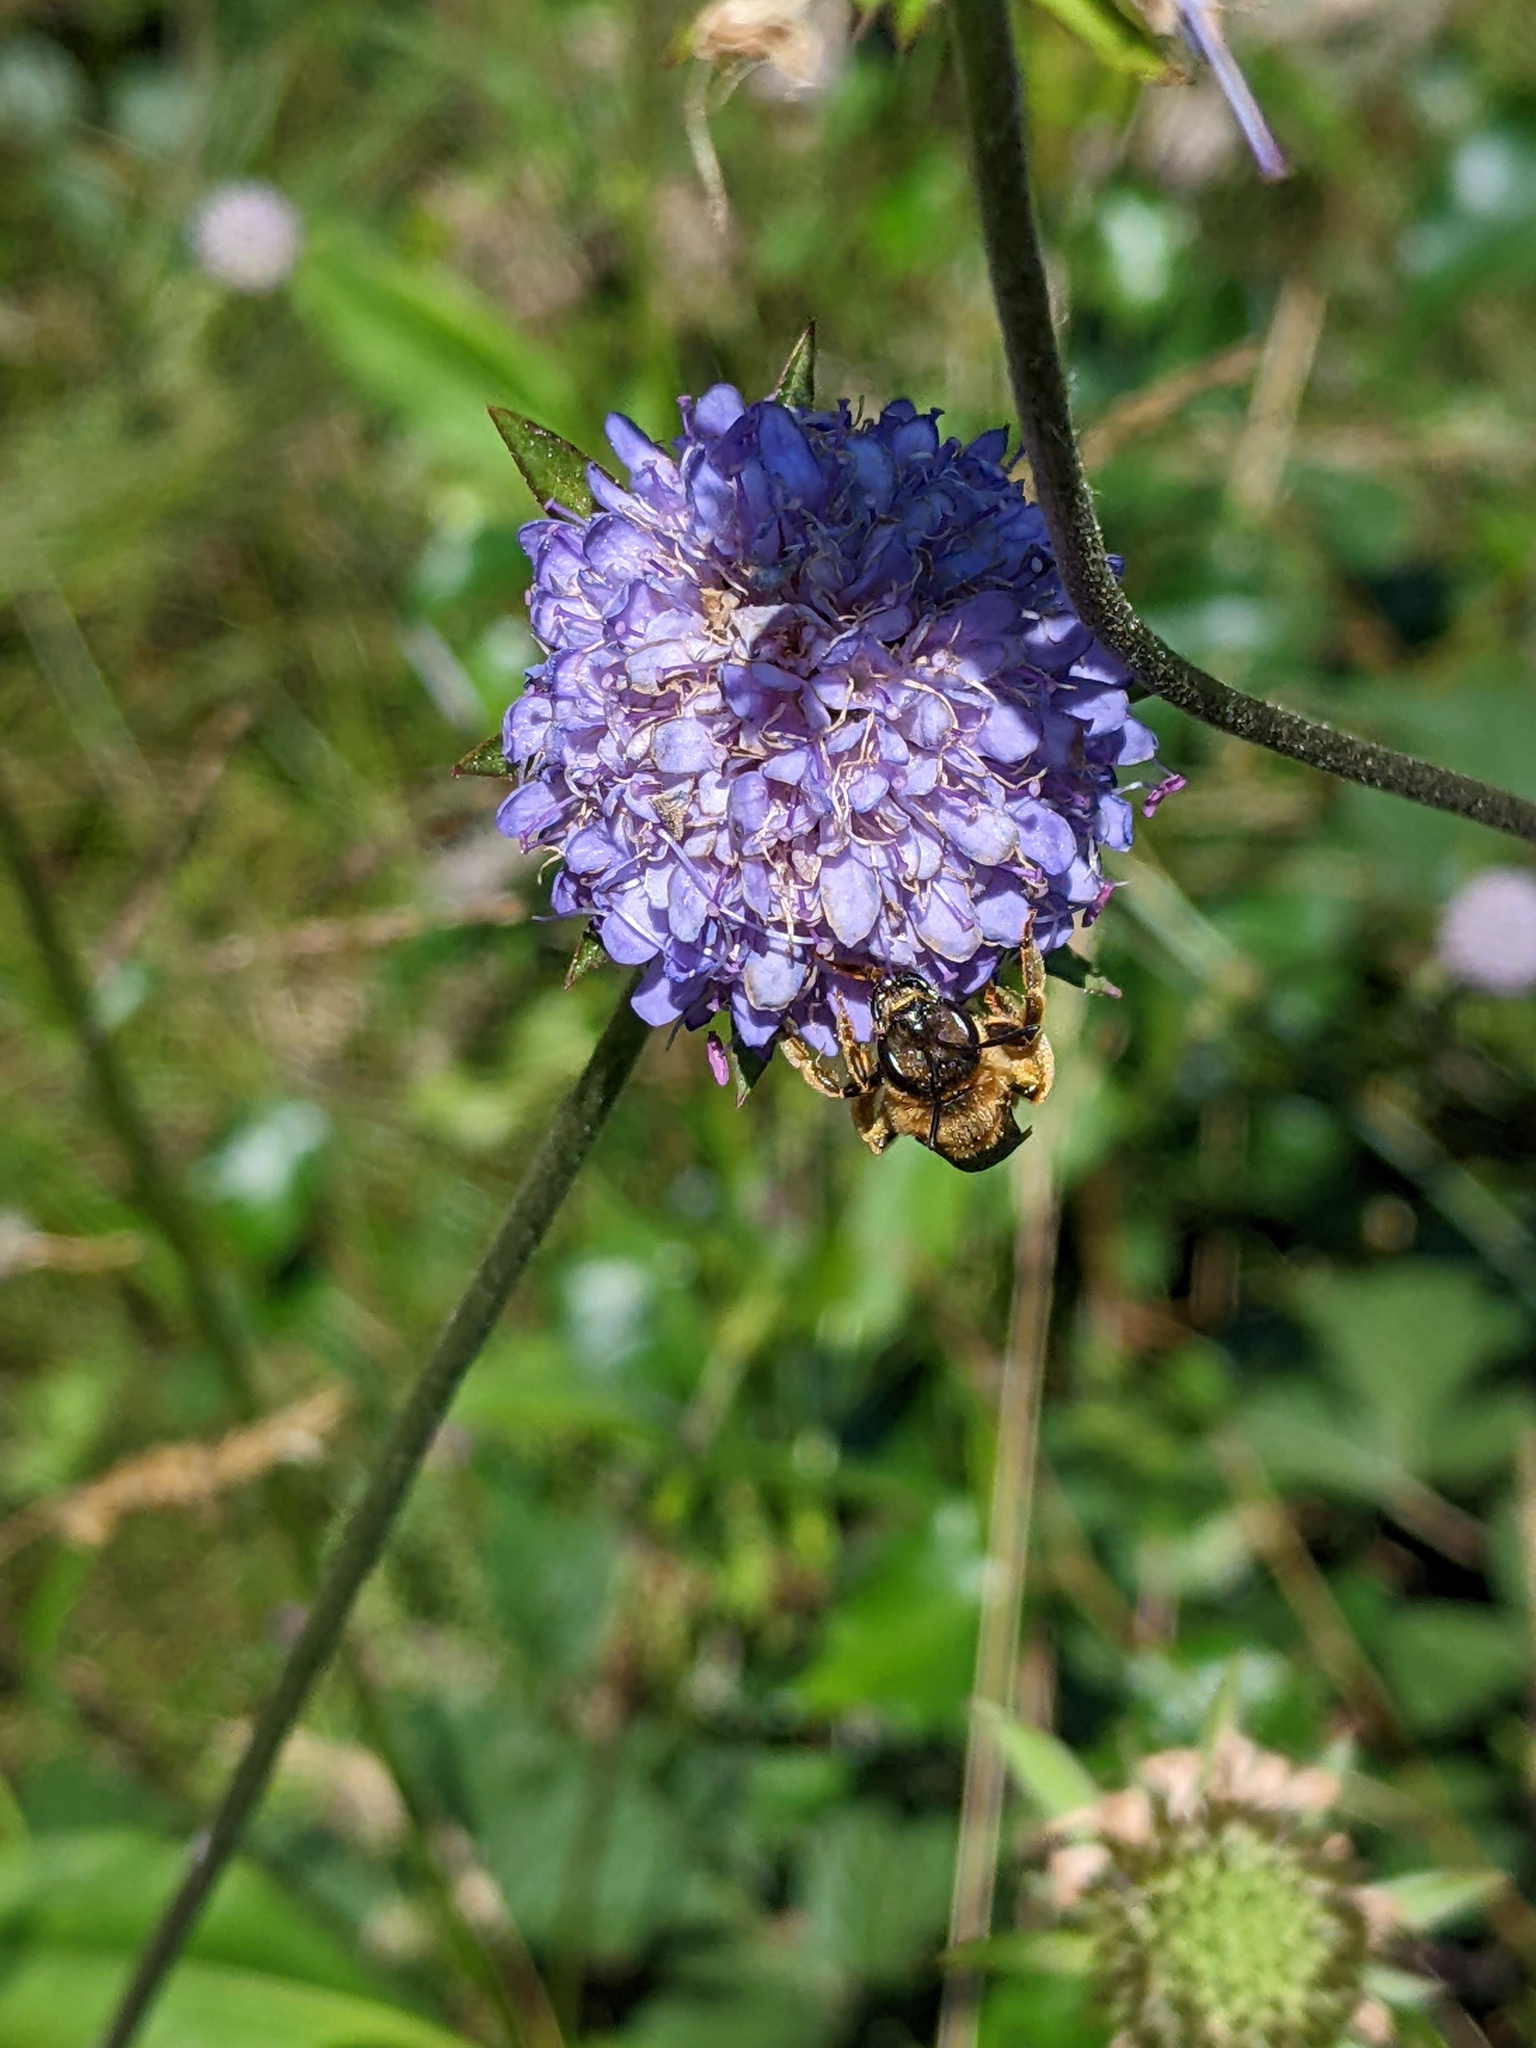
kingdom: Plantae
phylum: Tracheophyta
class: Magnoliopsida
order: Dipsacales
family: Caprifoliaceae
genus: Succisa
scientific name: Succisa pratensis
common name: Devil's-bit
